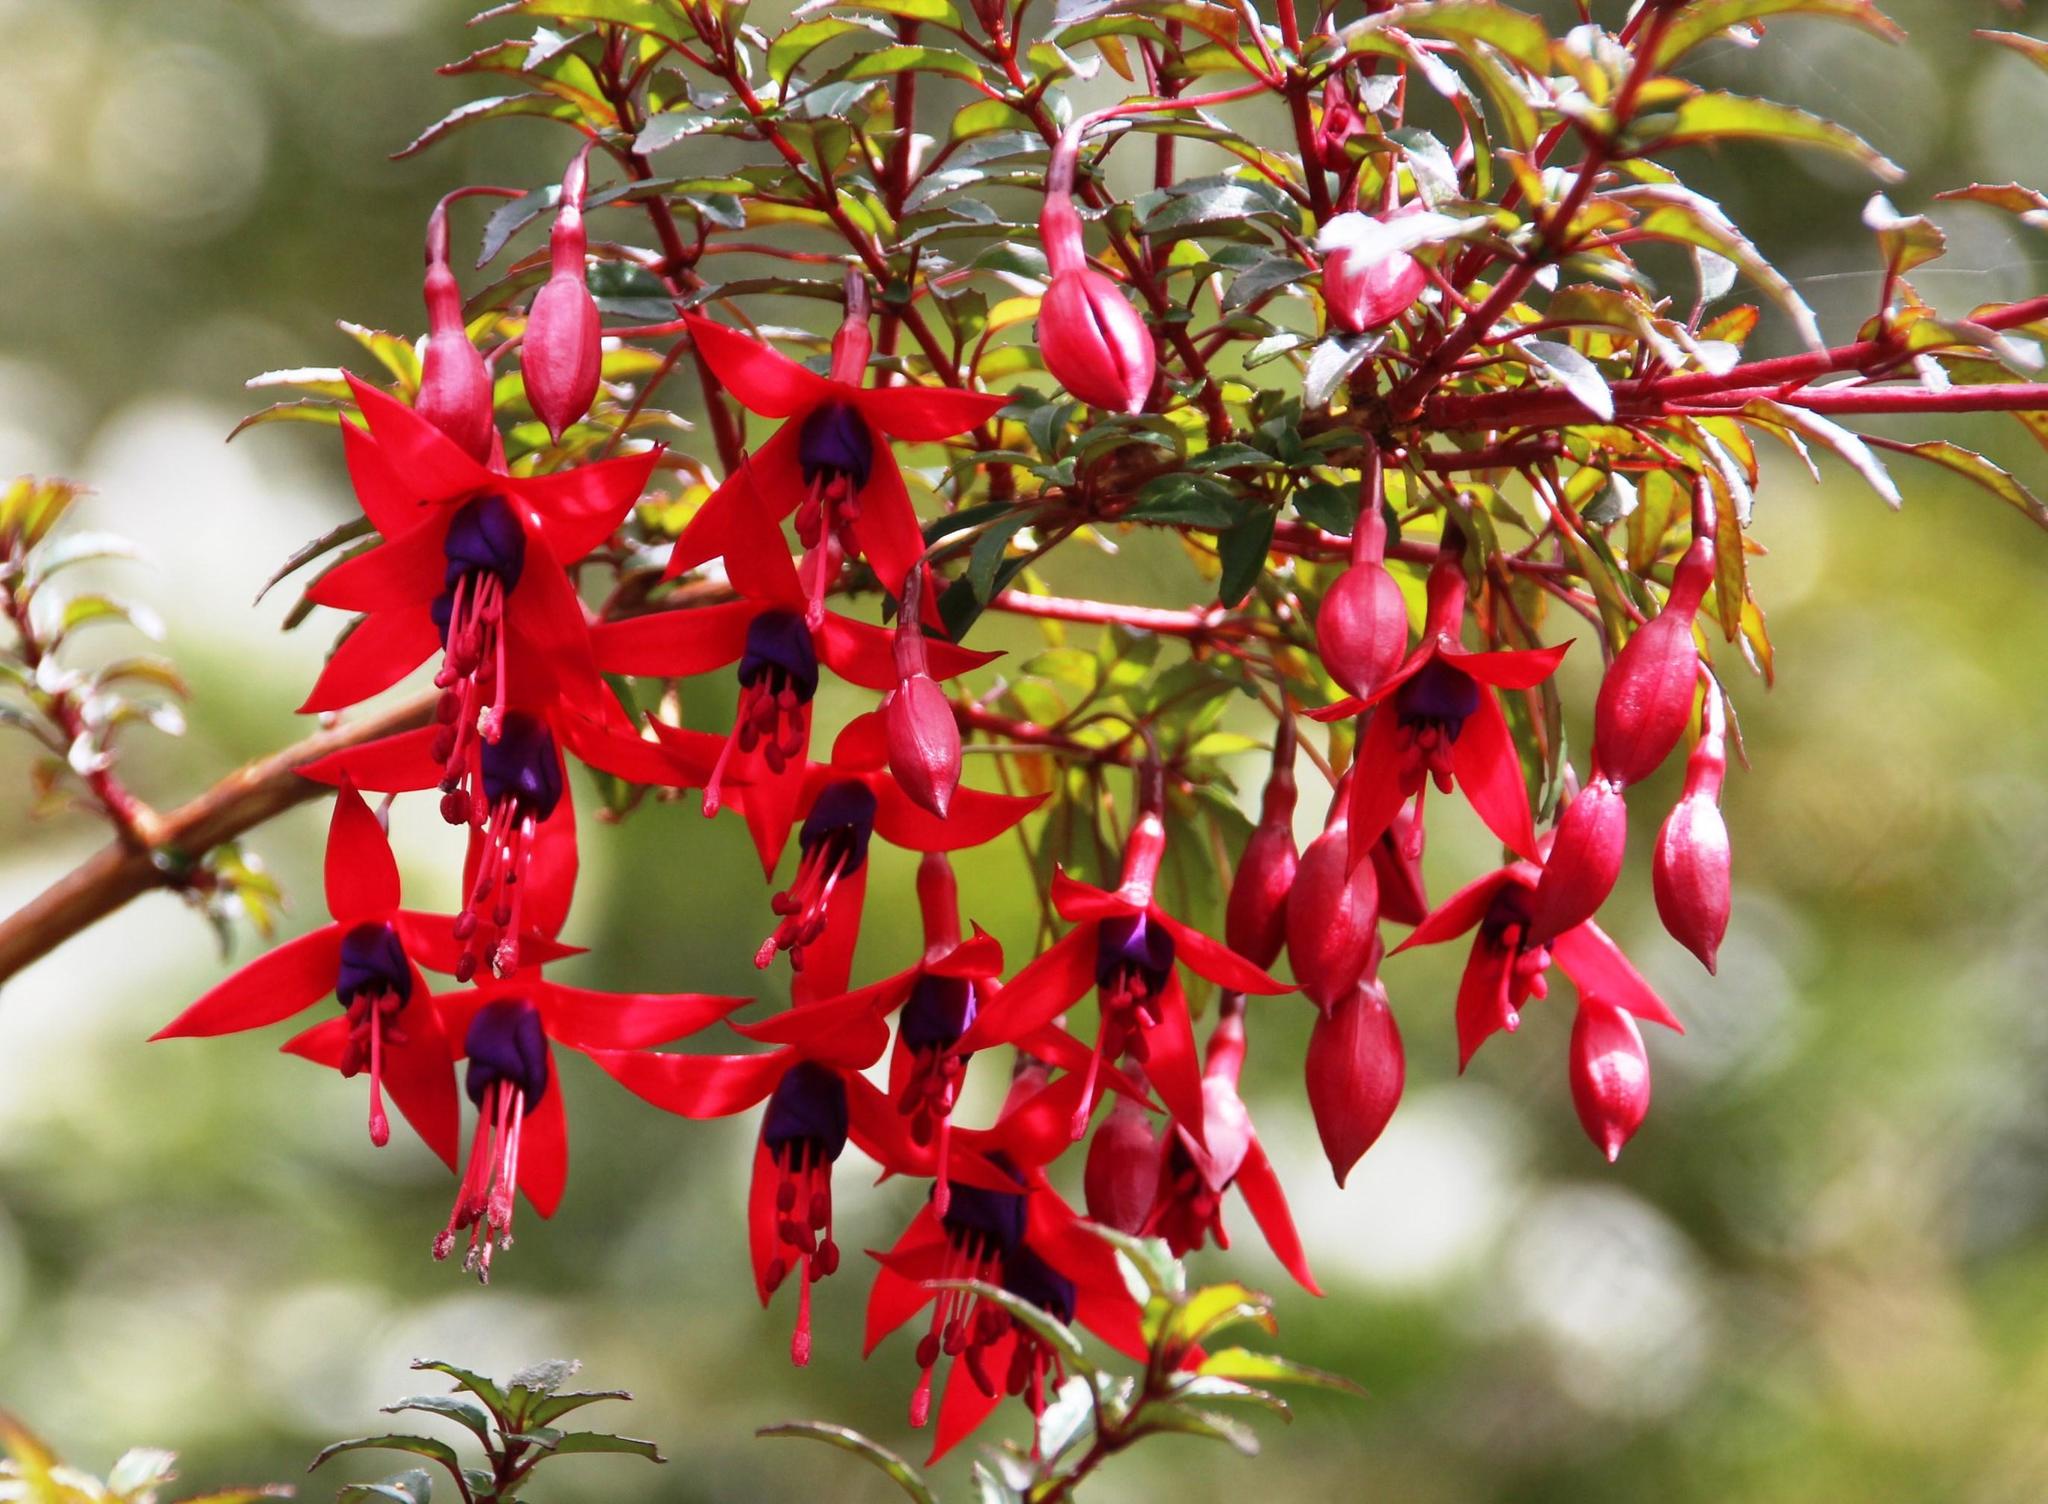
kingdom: Plantae
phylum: Tracheophyta
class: Magnoliopsida
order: Myrtales
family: Onagraceae
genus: Fuchsia
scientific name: Fuchsia magellanica
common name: Hardy fuchsia
